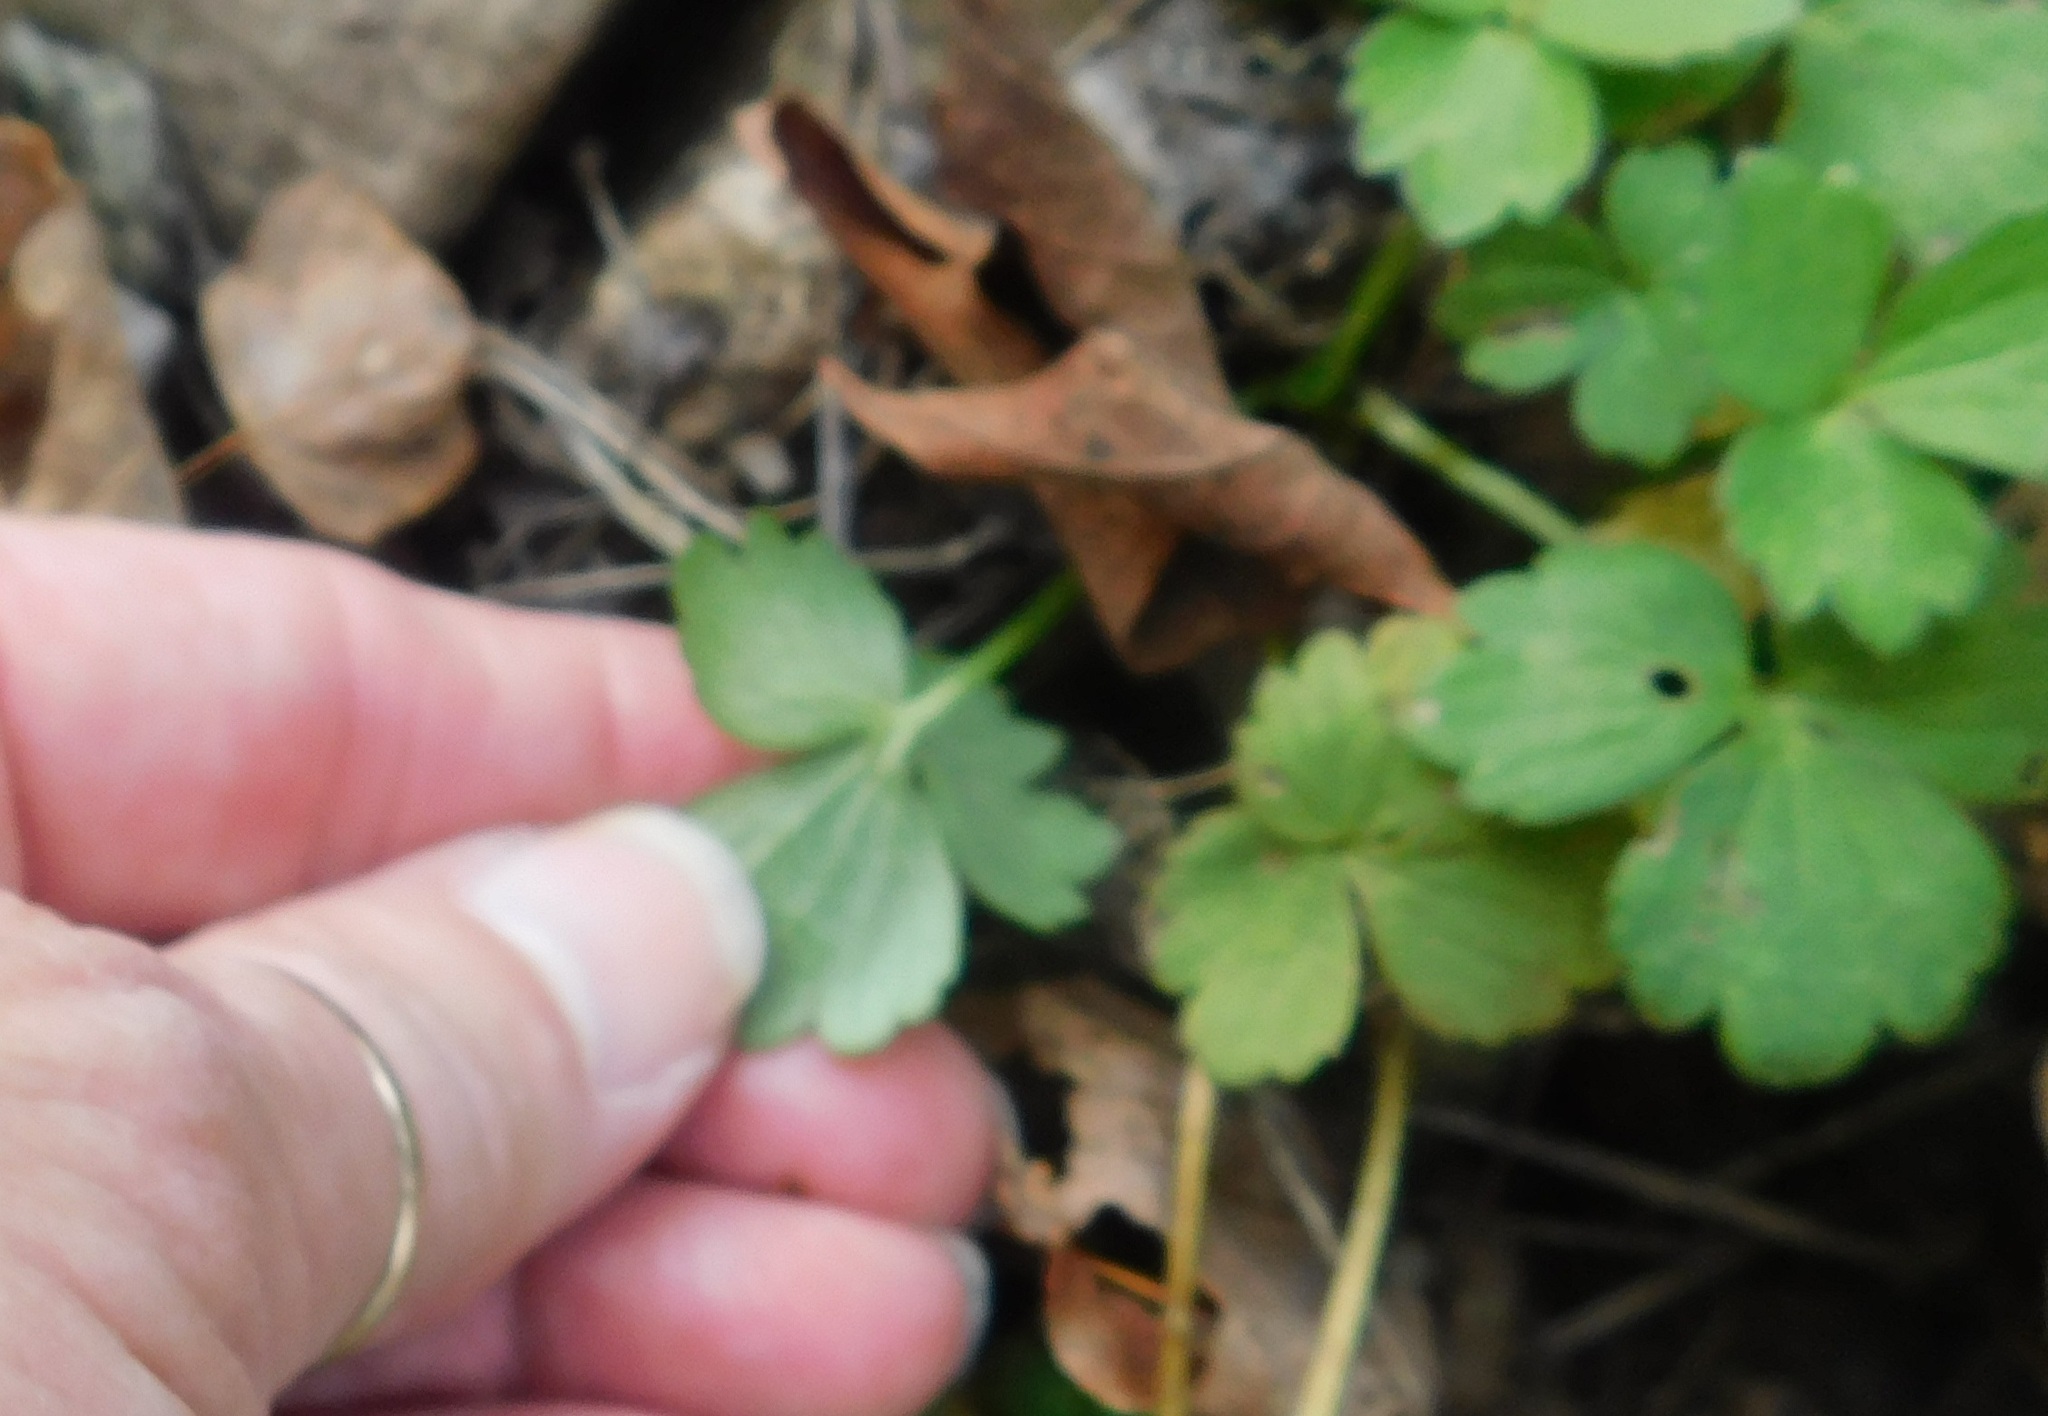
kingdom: Plantae
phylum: Tracheophyta
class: Magnoliopsida
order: Ranunculales
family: Ranunculaceae
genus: Ranunculus
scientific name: Ranunculus repens
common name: Creeping buttercup
